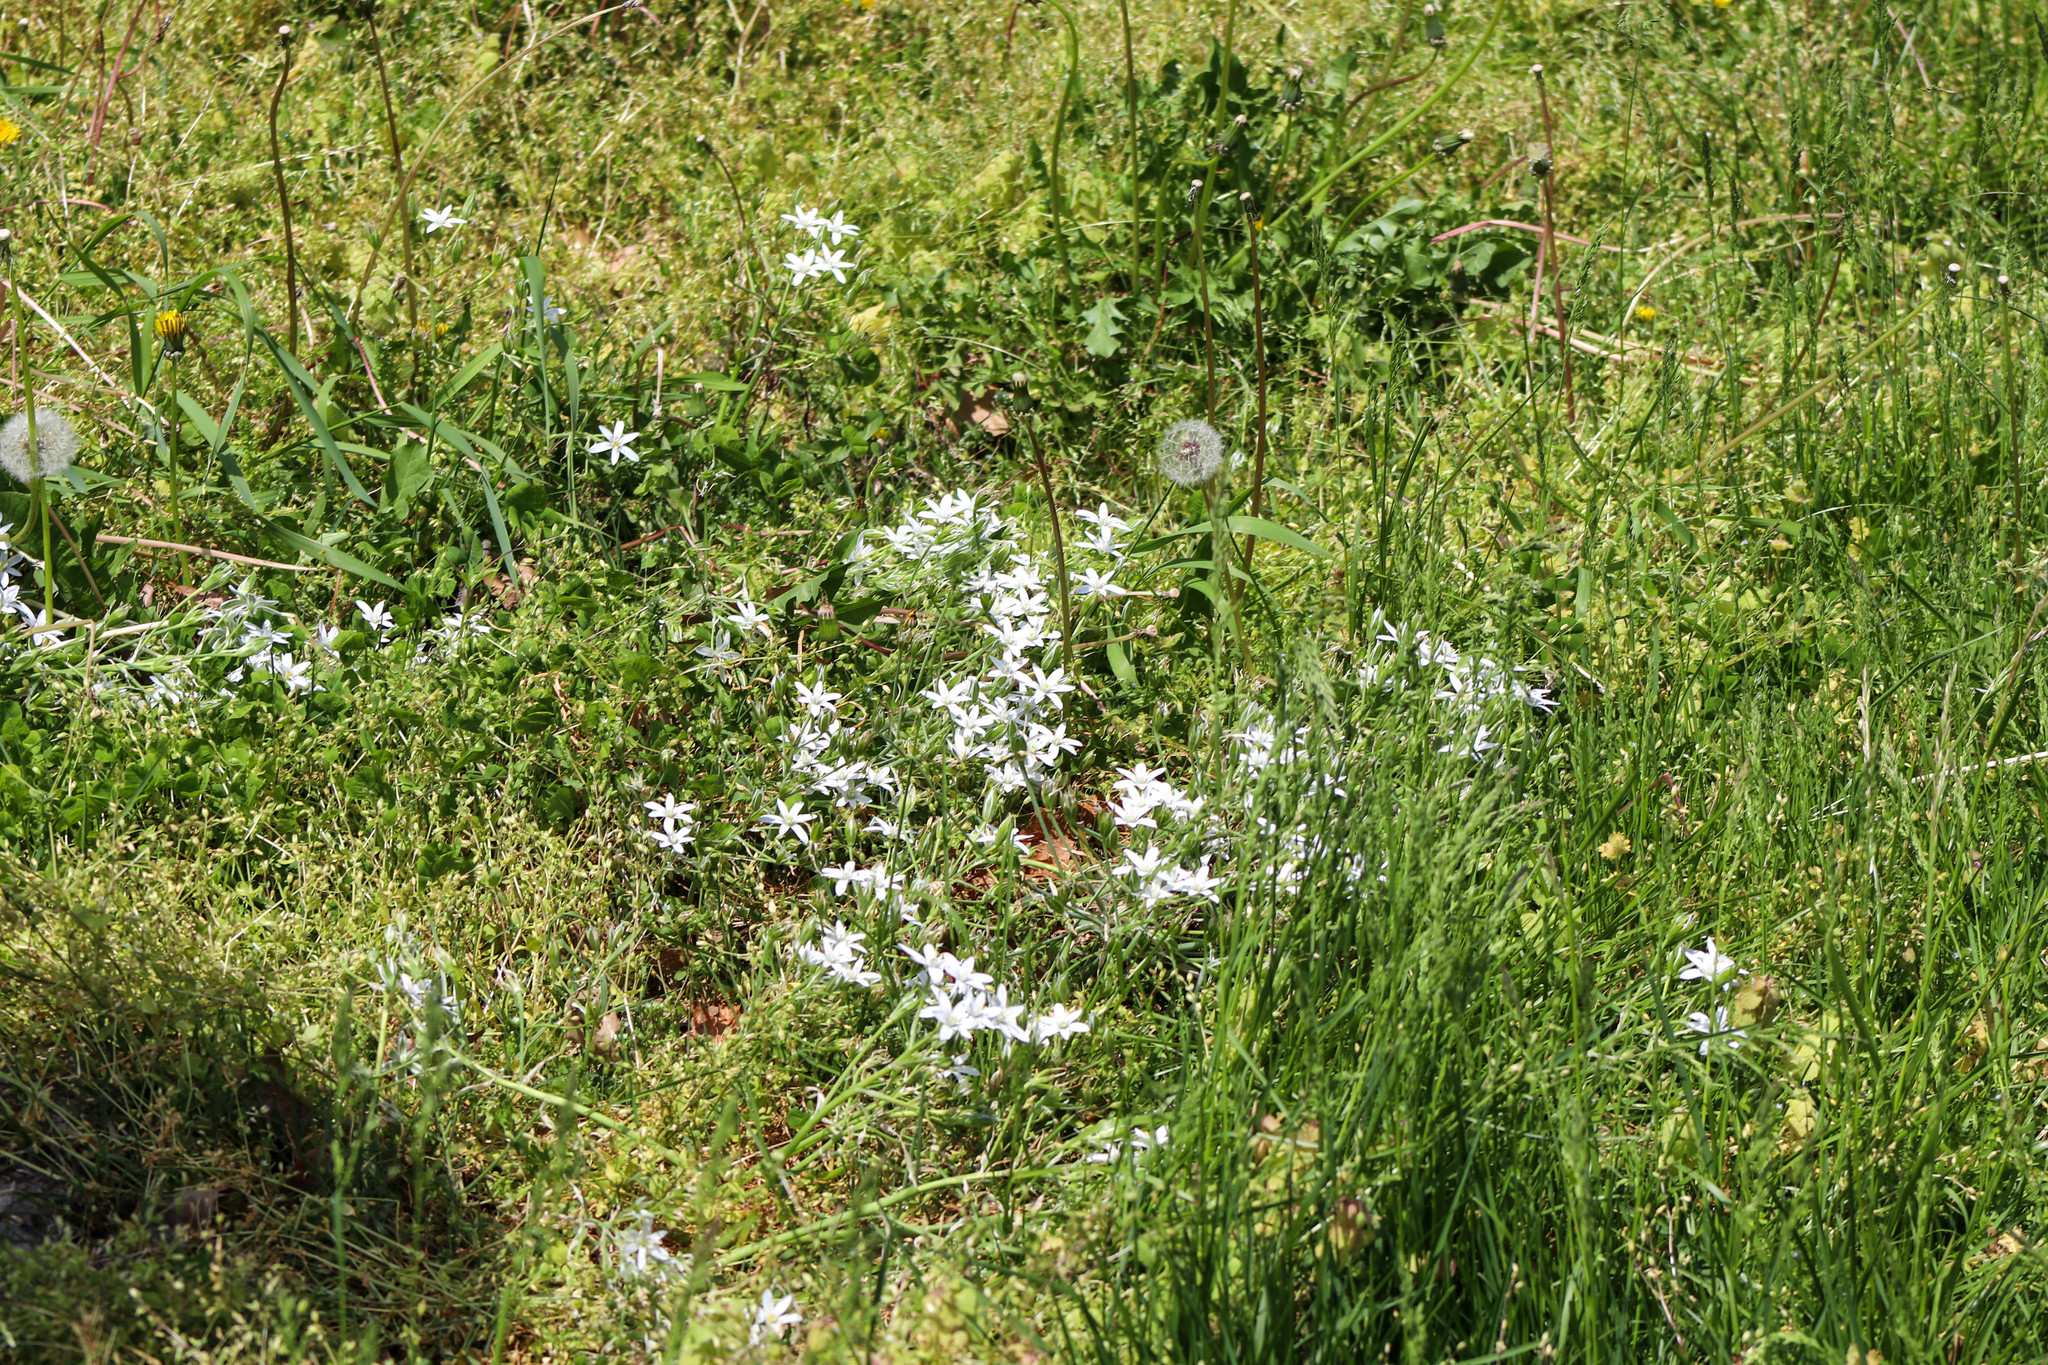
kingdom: Plantae
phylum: Tracheophyta
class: Liliopsida
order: Asparagales
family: Asparagaceae
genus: Ornithogalum
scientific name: Ornithogalum umbellatum
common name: Garden star-of-bethlehem
